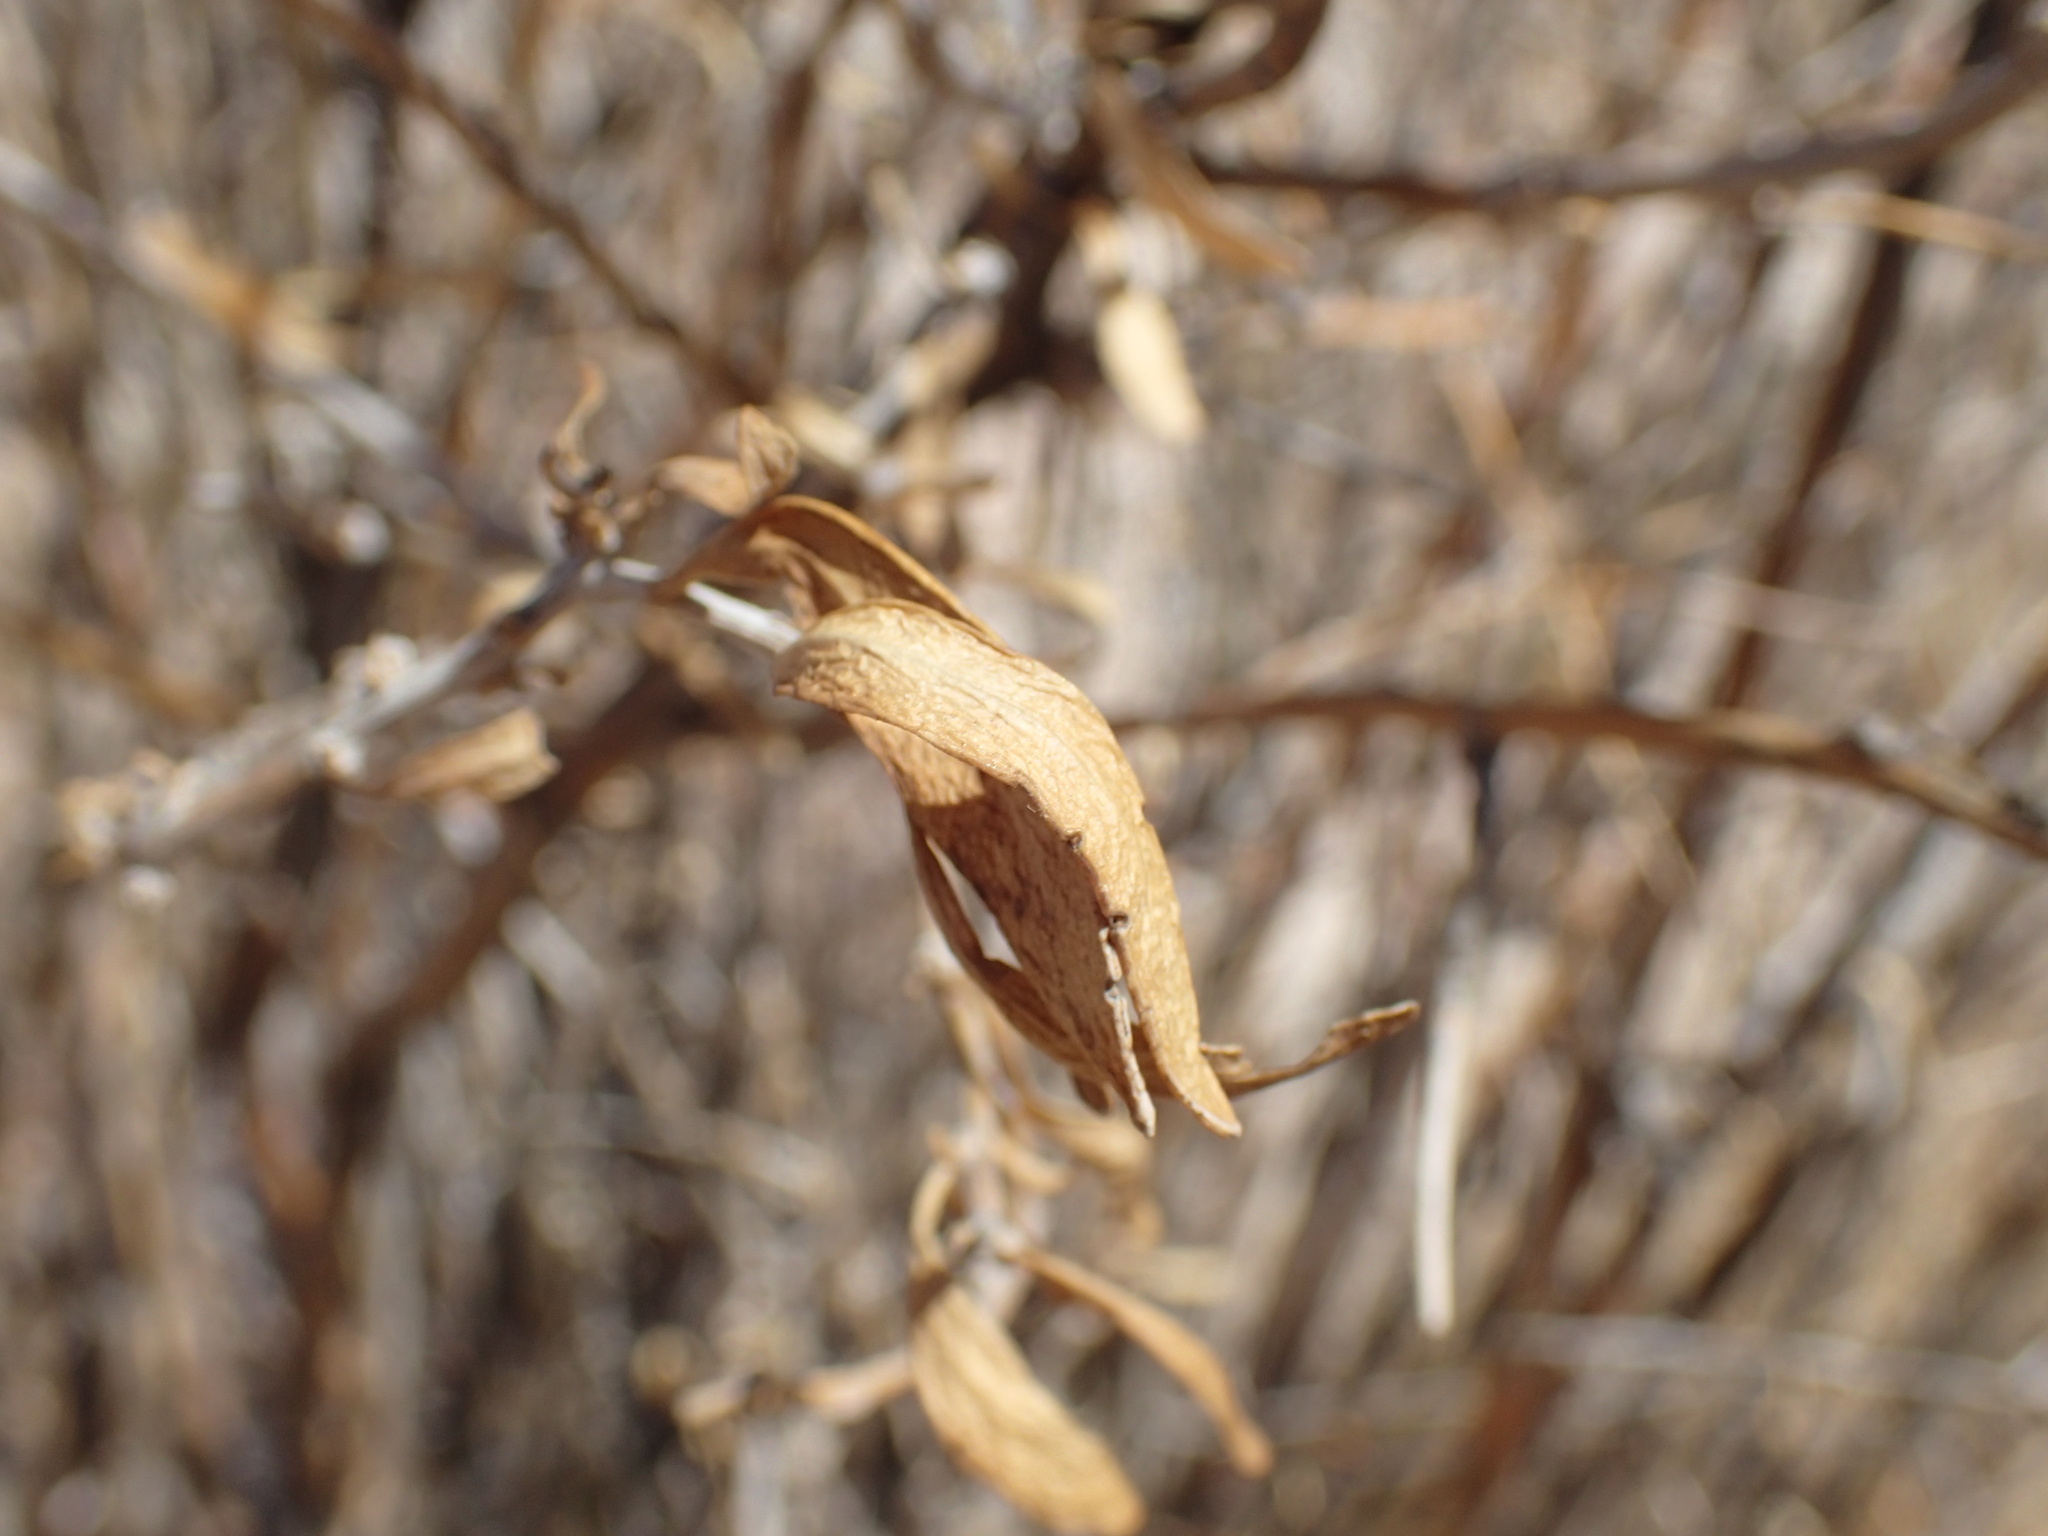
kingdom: Plantae
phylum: Tracheophyta
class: Magnoliopsida
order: Lamiales
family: Bignoniaceae
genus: Rhigozum
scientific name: Rhigozum brevispinosum
